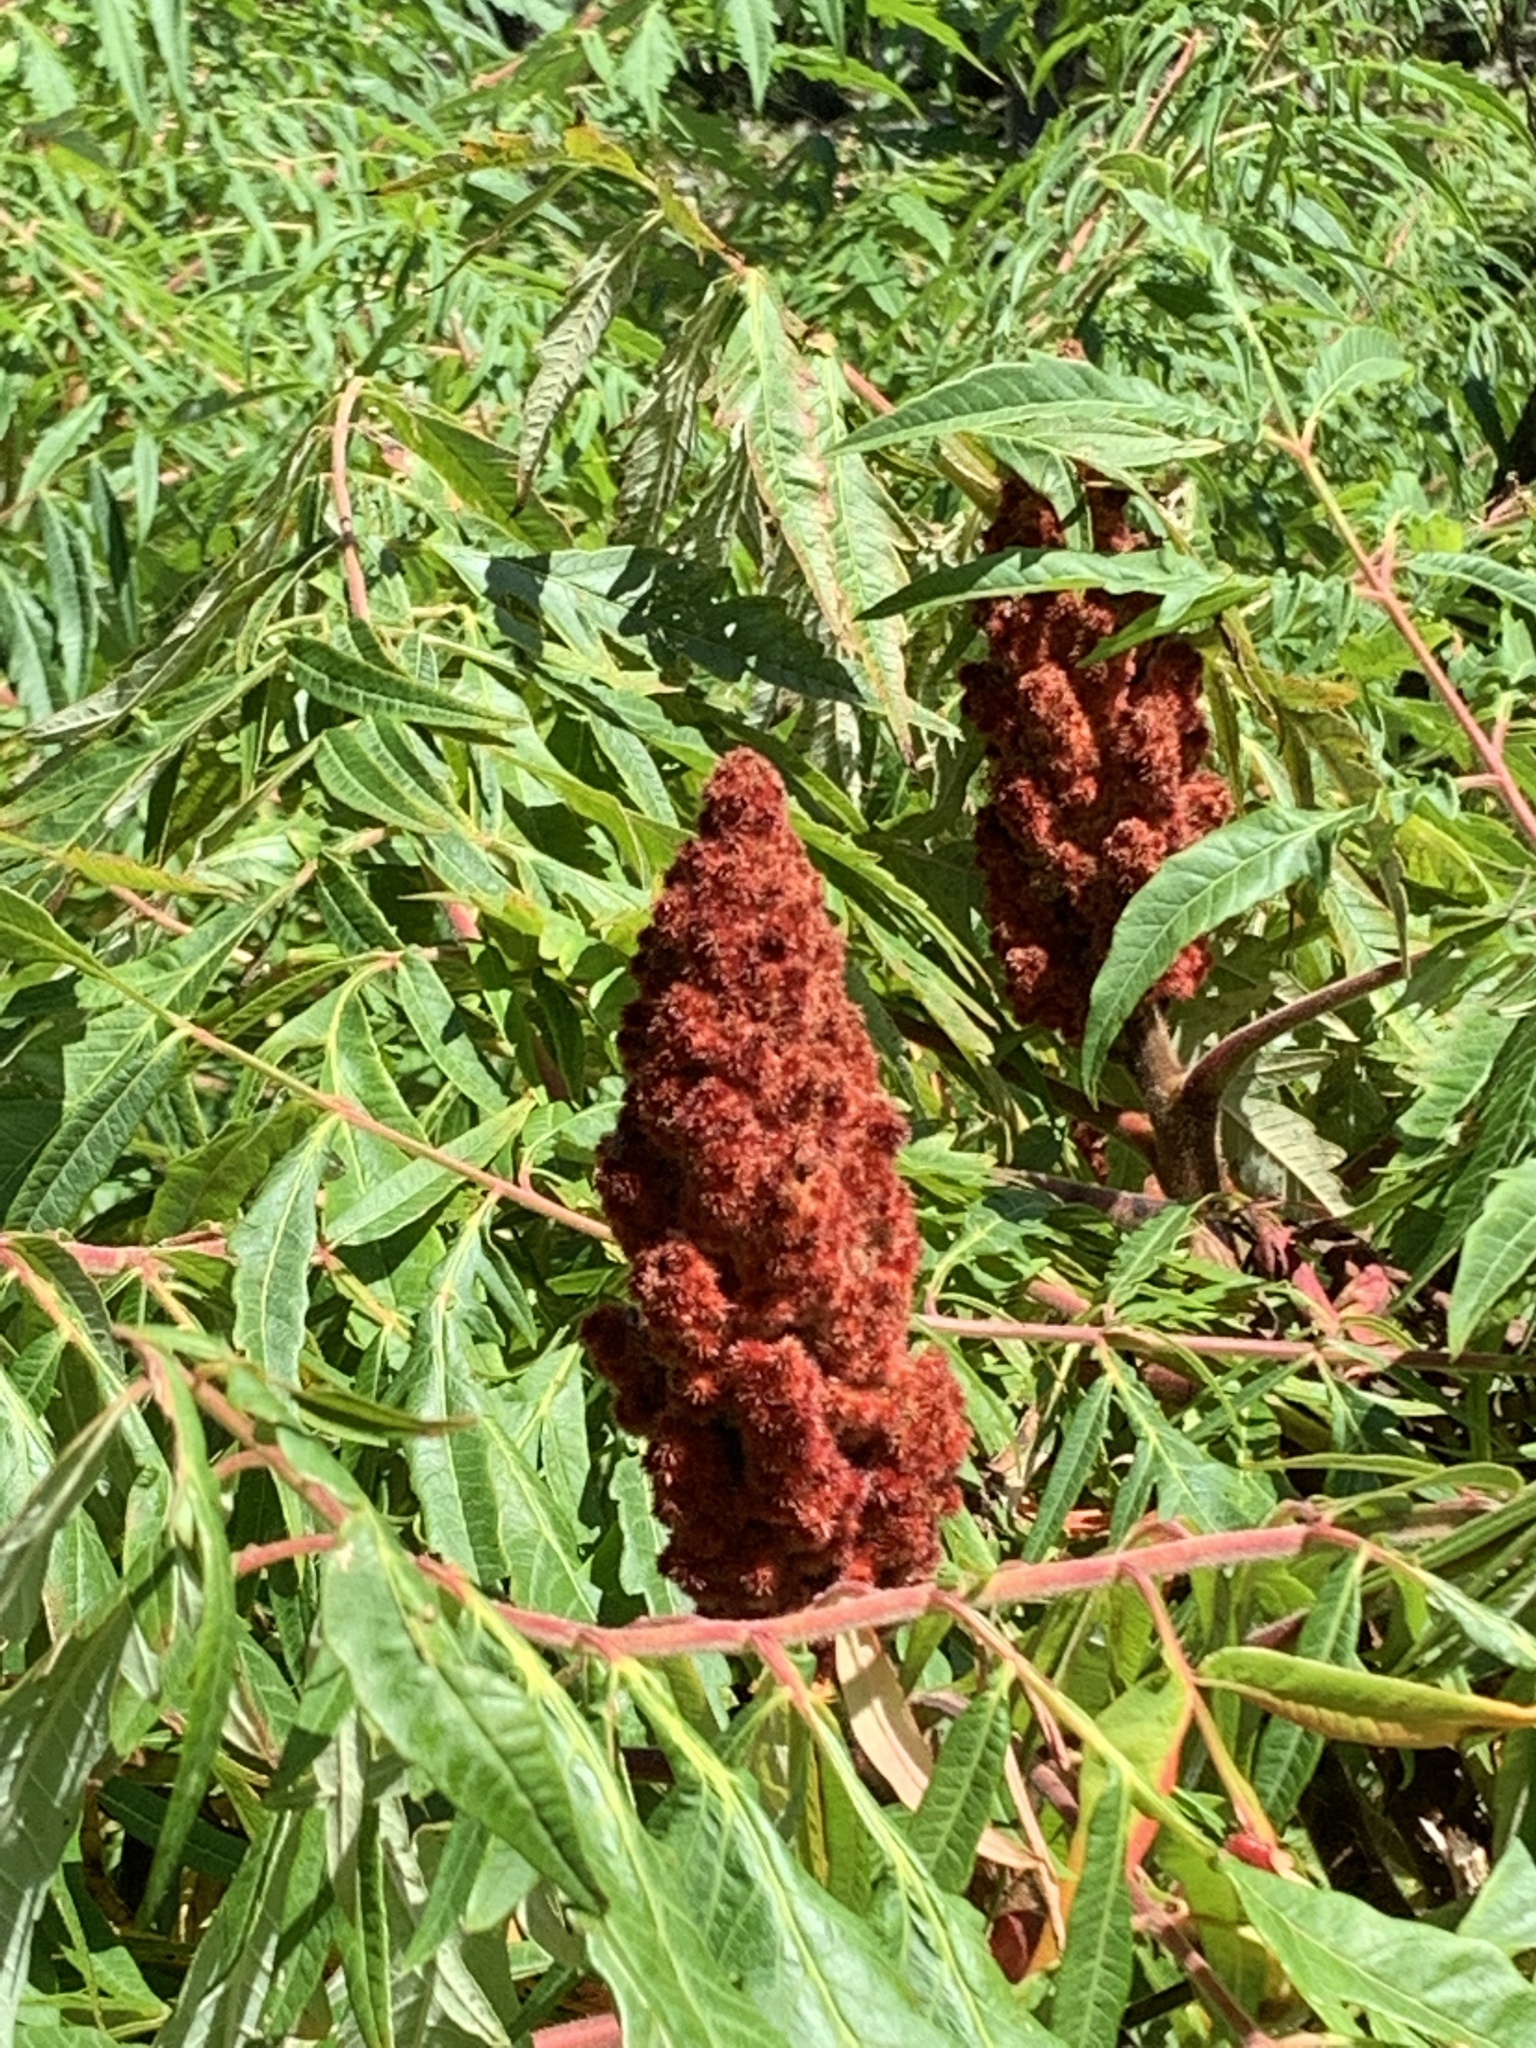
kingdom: Plantae
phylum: Tracheophyta
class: Magnoliopsida
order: Sapindales
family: Anacardiaceae
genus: Rhus
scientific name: Rhus typhina
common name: Staghorn sumac
